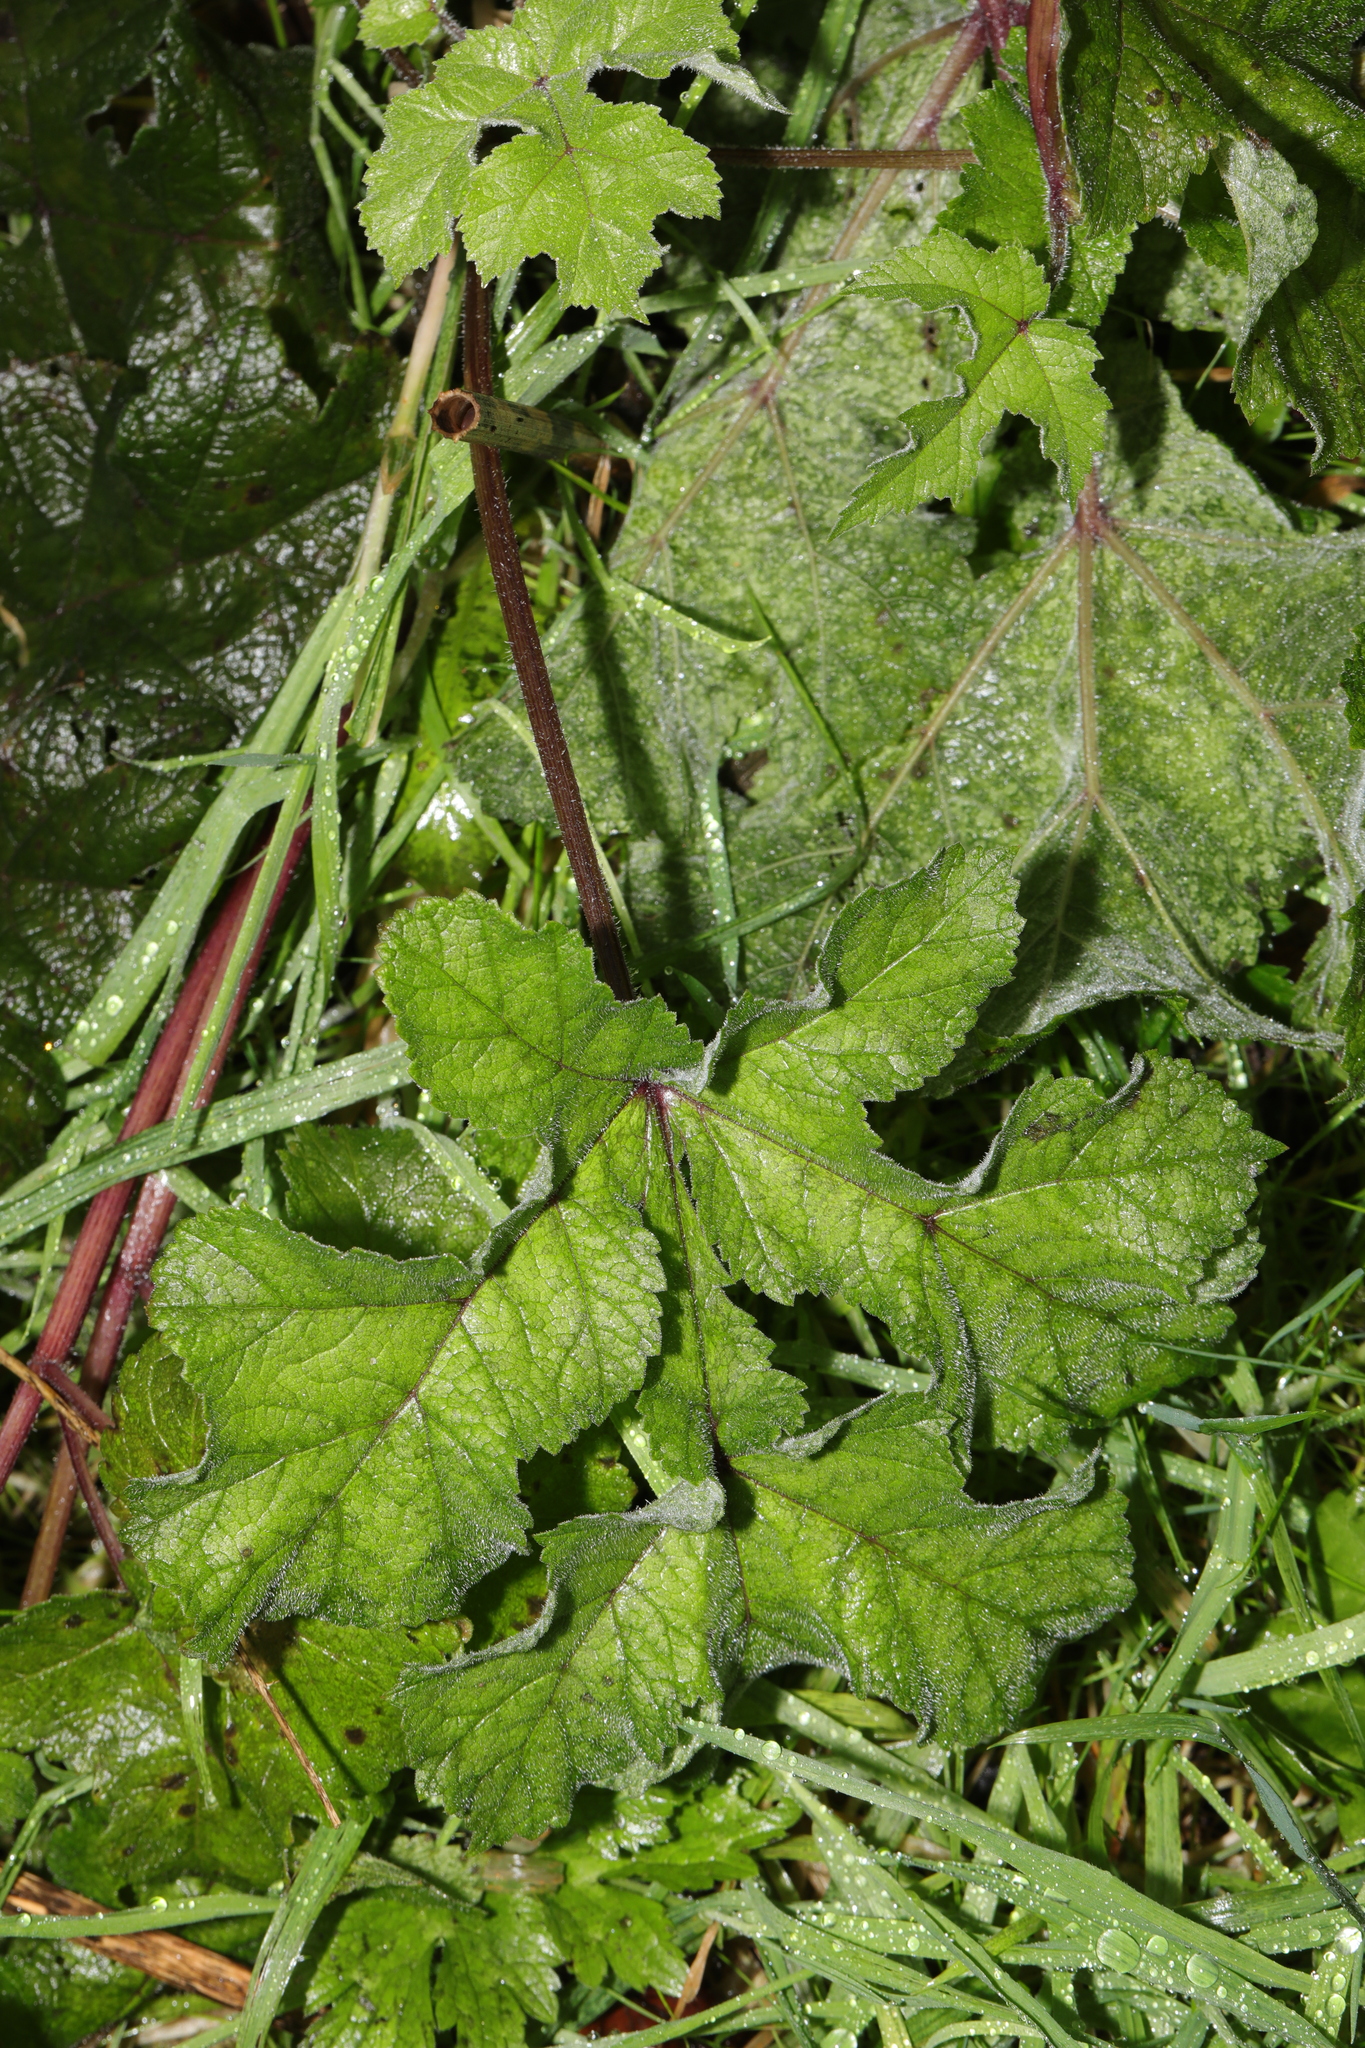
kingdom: Plantae
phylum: Tracheophyta
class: Magnoliopsida
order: Apiales
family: Apiaceae
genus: Heracleum
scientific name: Heracleum sphondylium
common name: Hogweed
